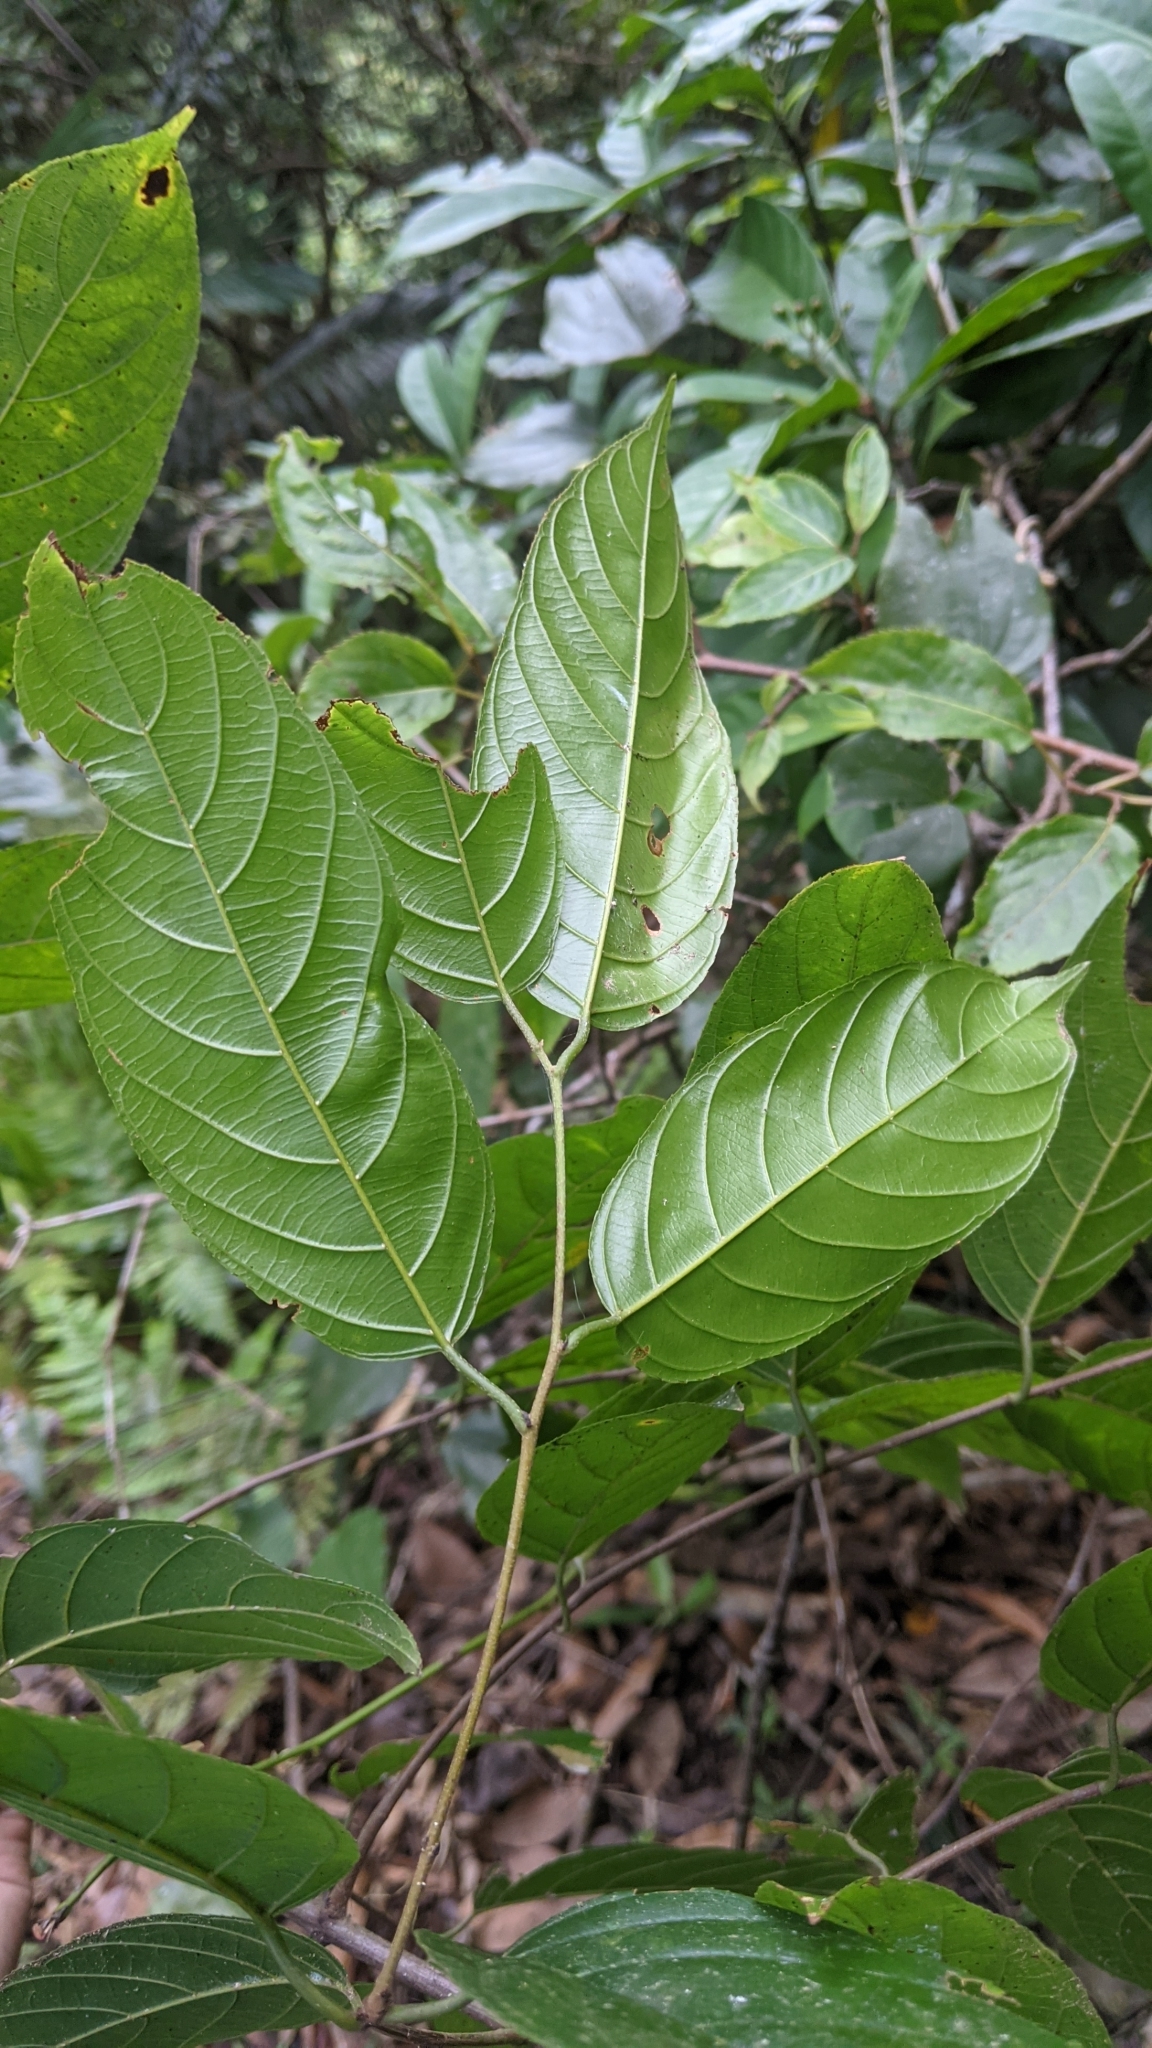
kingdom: Plantae
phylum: Tracheophyta
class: Magnoliopsida
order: Rosales
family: Rhamnaceae
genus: Sageretia
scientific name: Sageretia randaiensis
